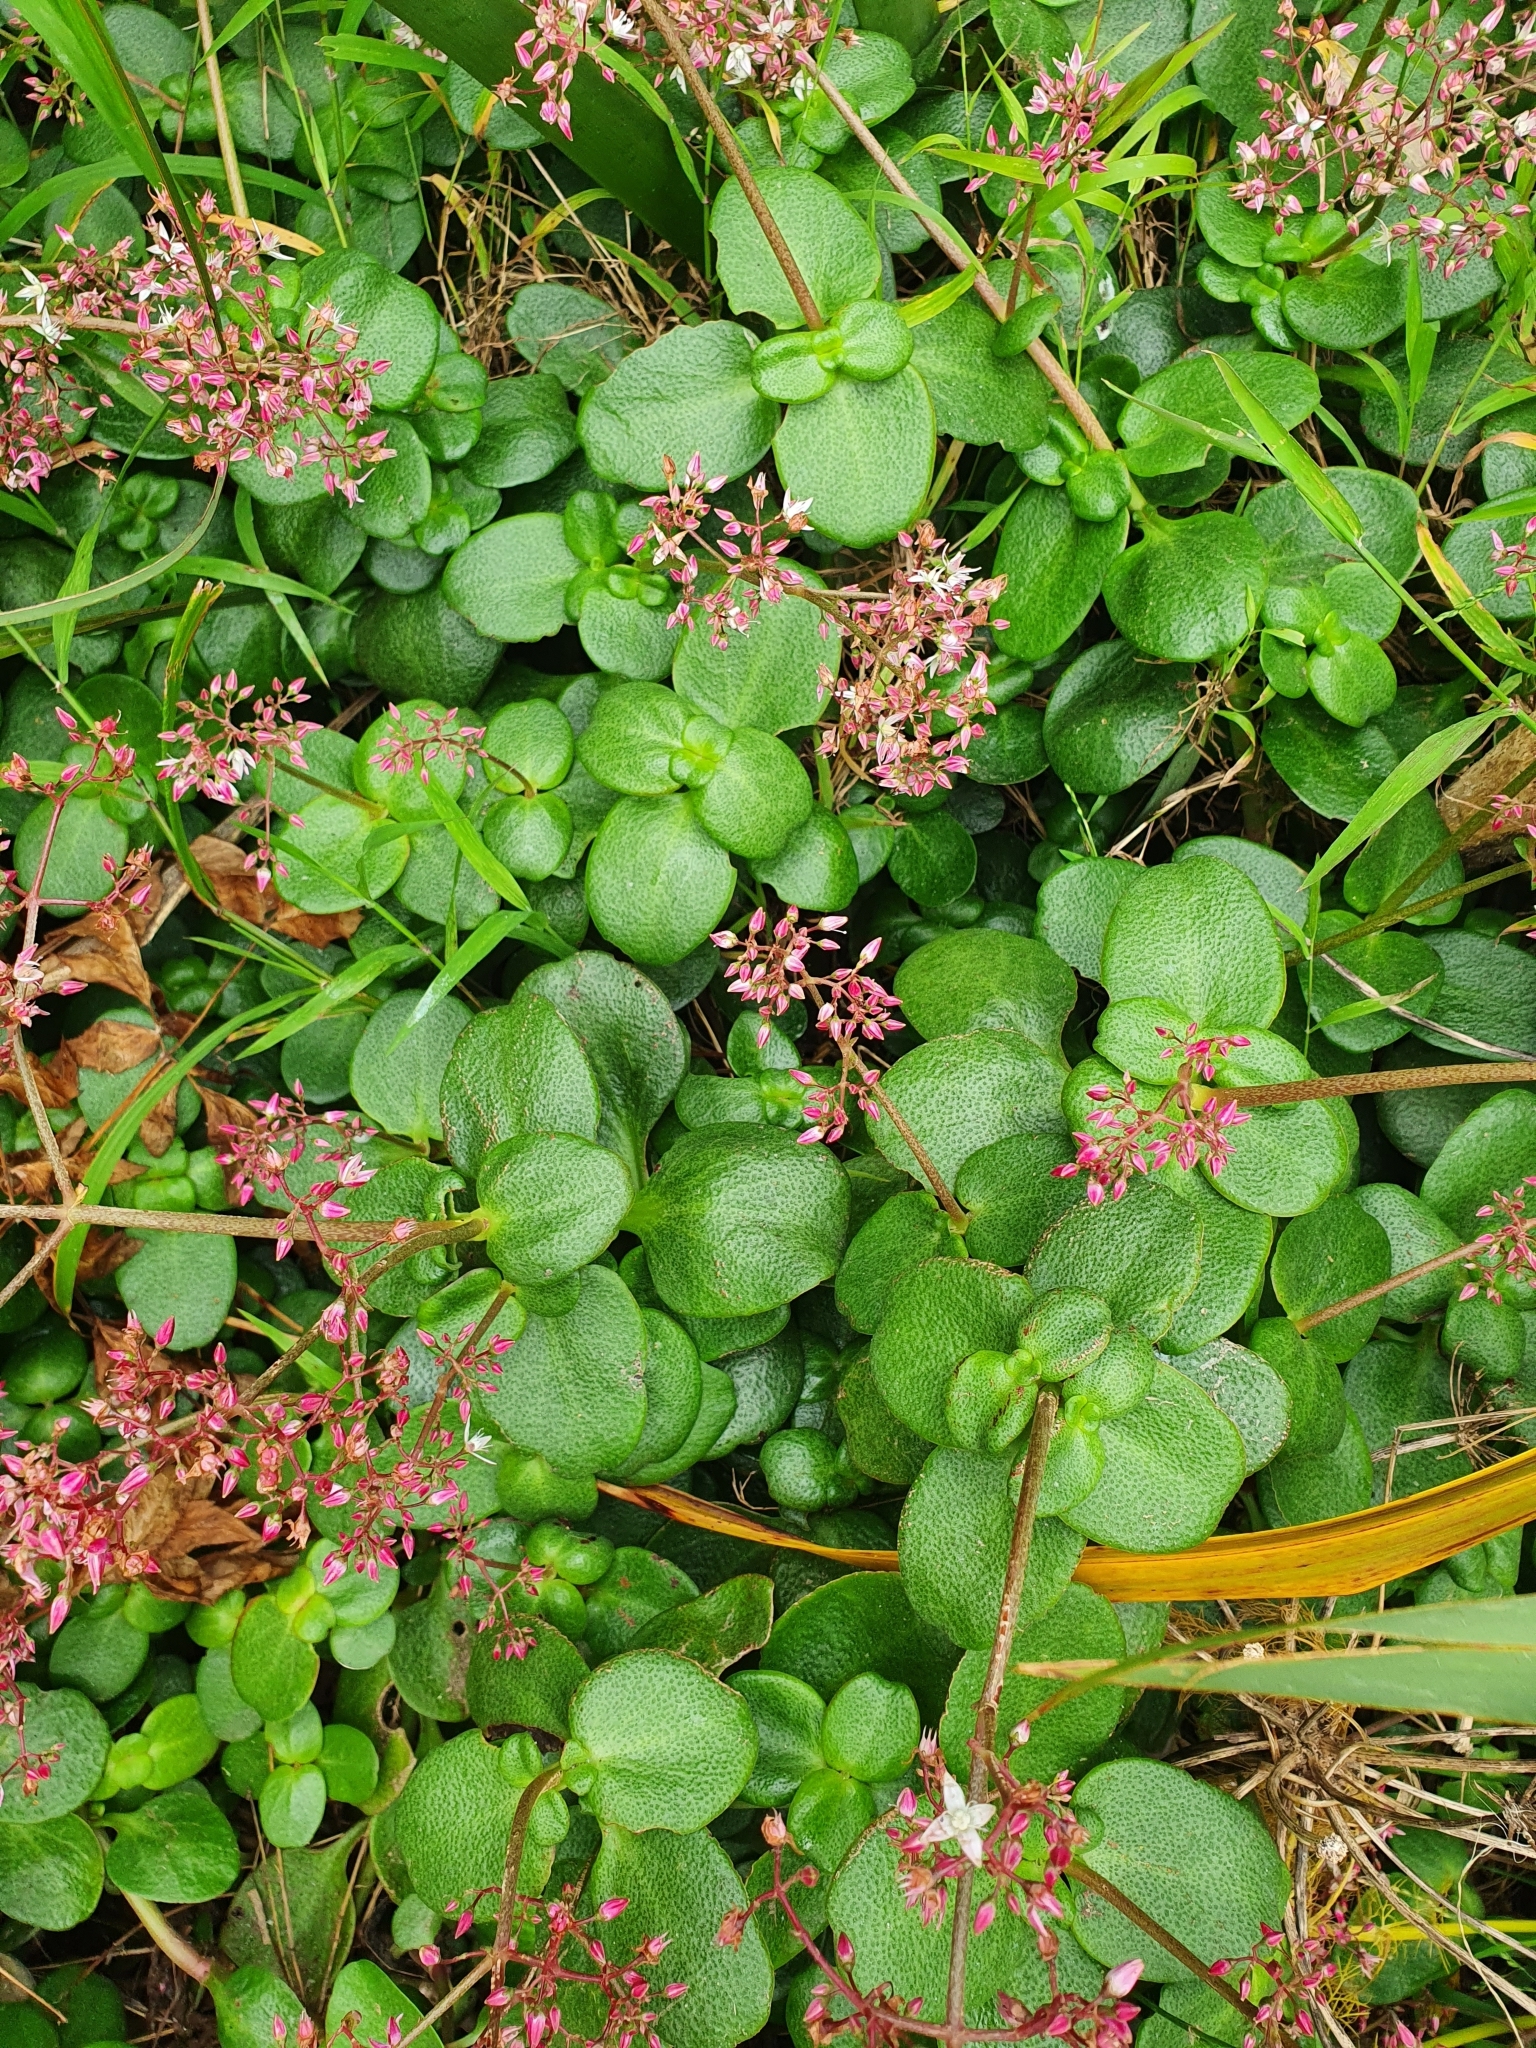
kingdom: Plantae
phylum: Tracheophyta
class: Magnoliopsida
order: Saxifragales
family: Crassulaceae
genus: Crassula
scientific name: Crassula multicava
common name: Cape province pygmyweed
